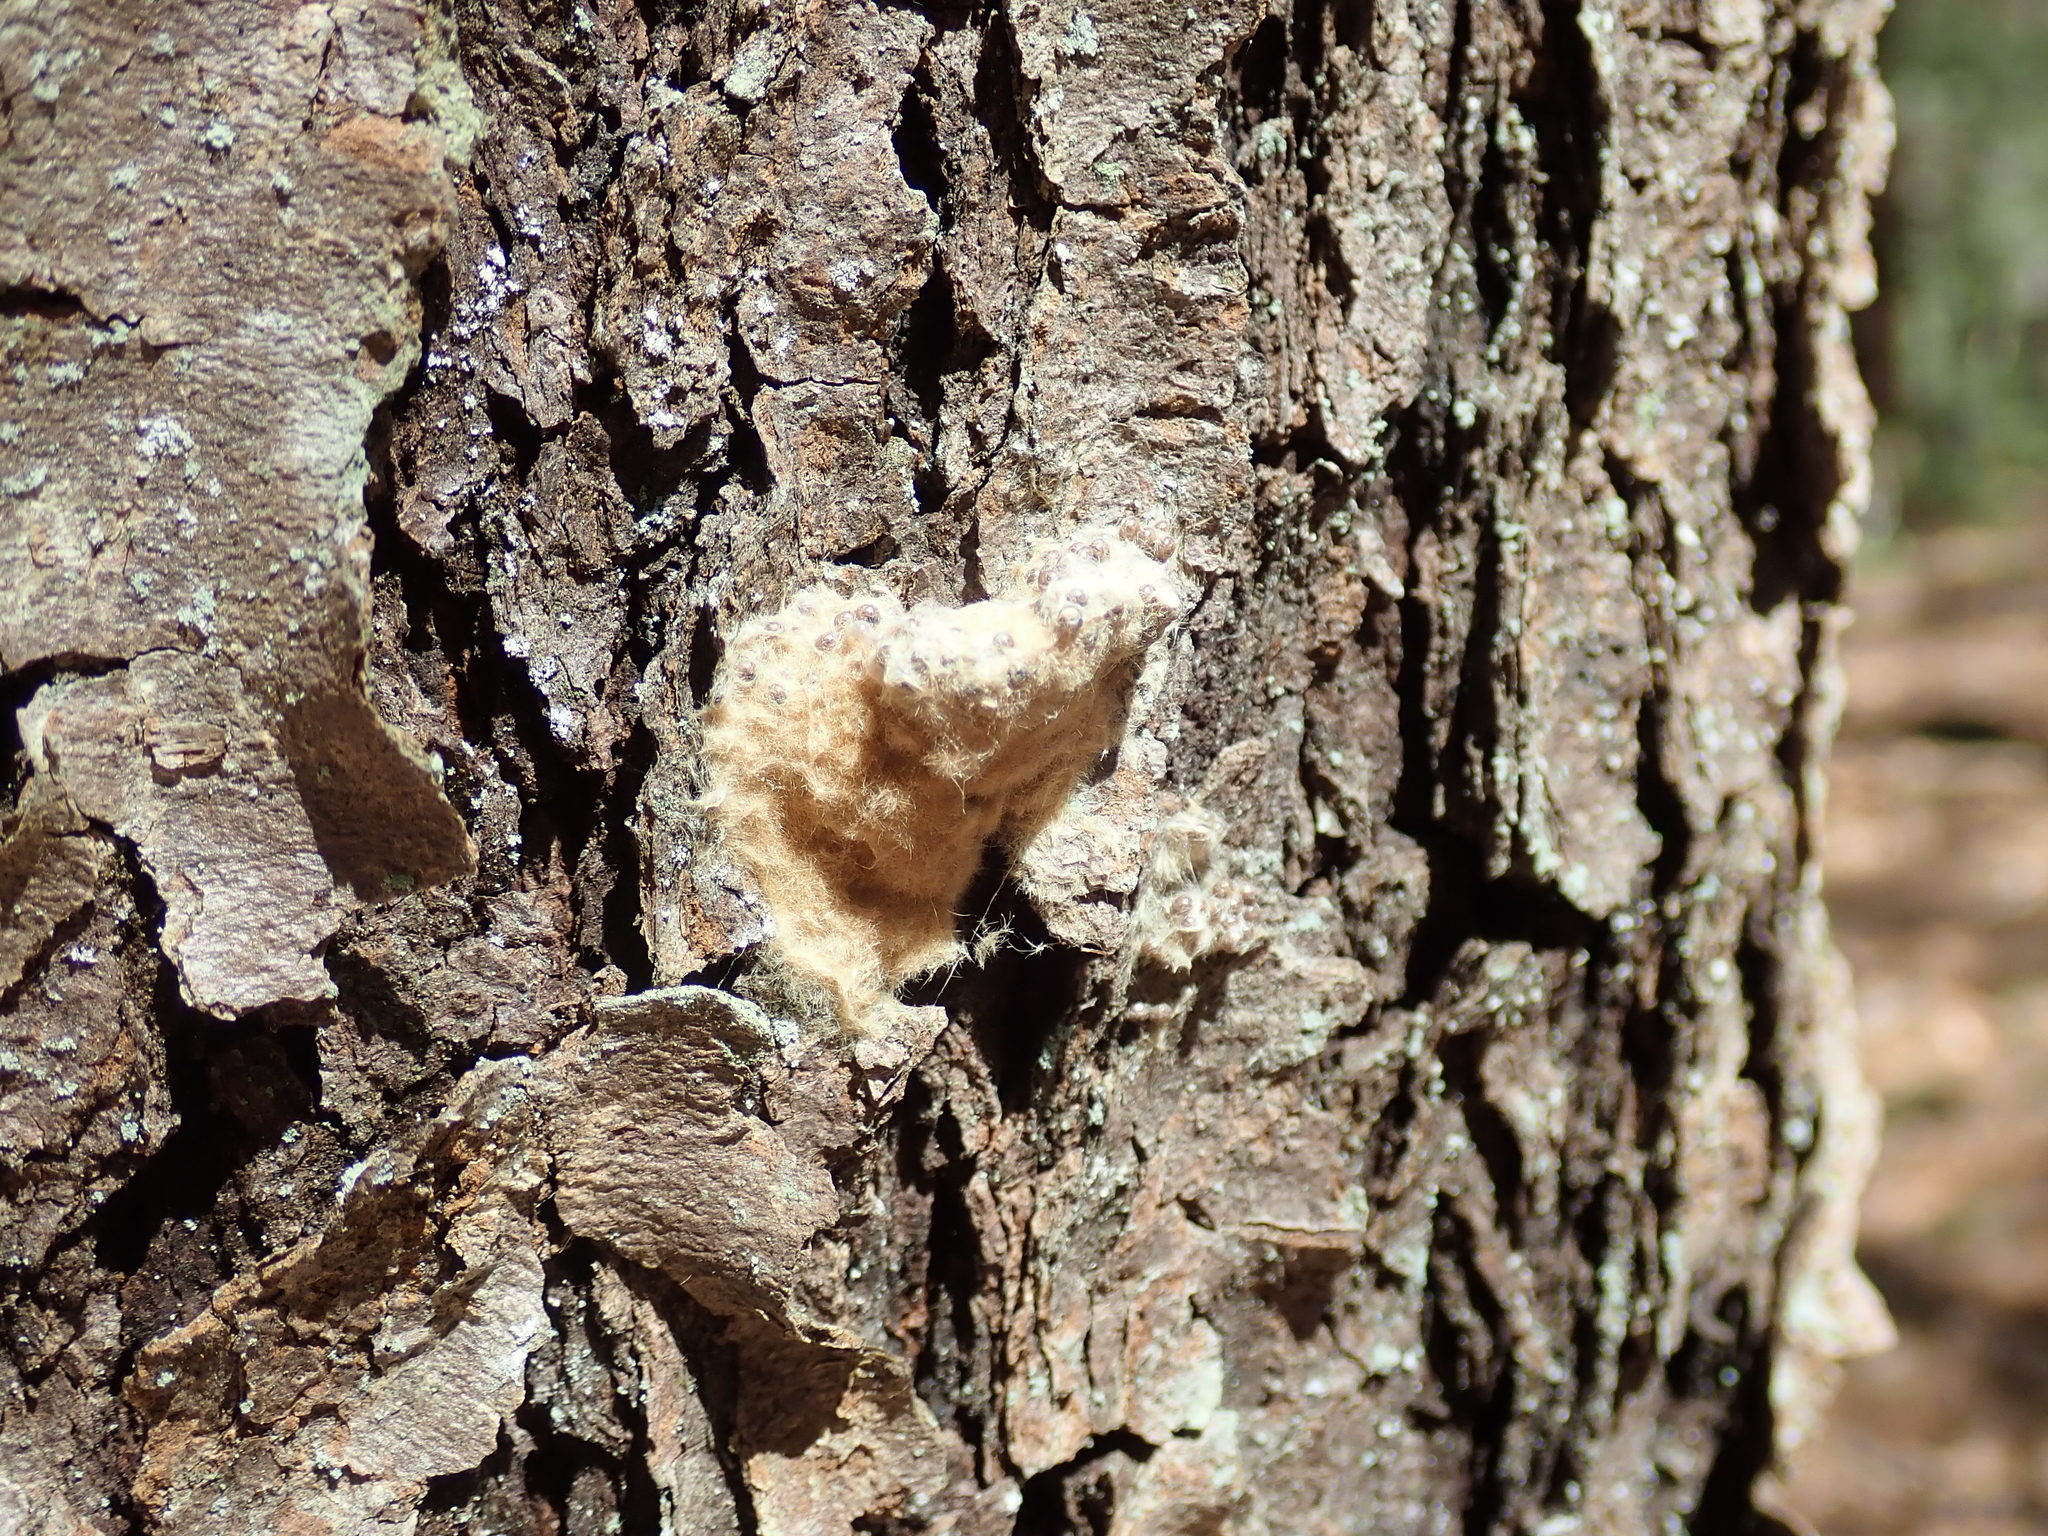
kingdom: Animalia
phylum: Arthropoda
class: Insecta
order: Lepidoptera
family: Erebidae
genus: Lymantria
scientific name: Lymantria dispar
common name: Gypsy moth
